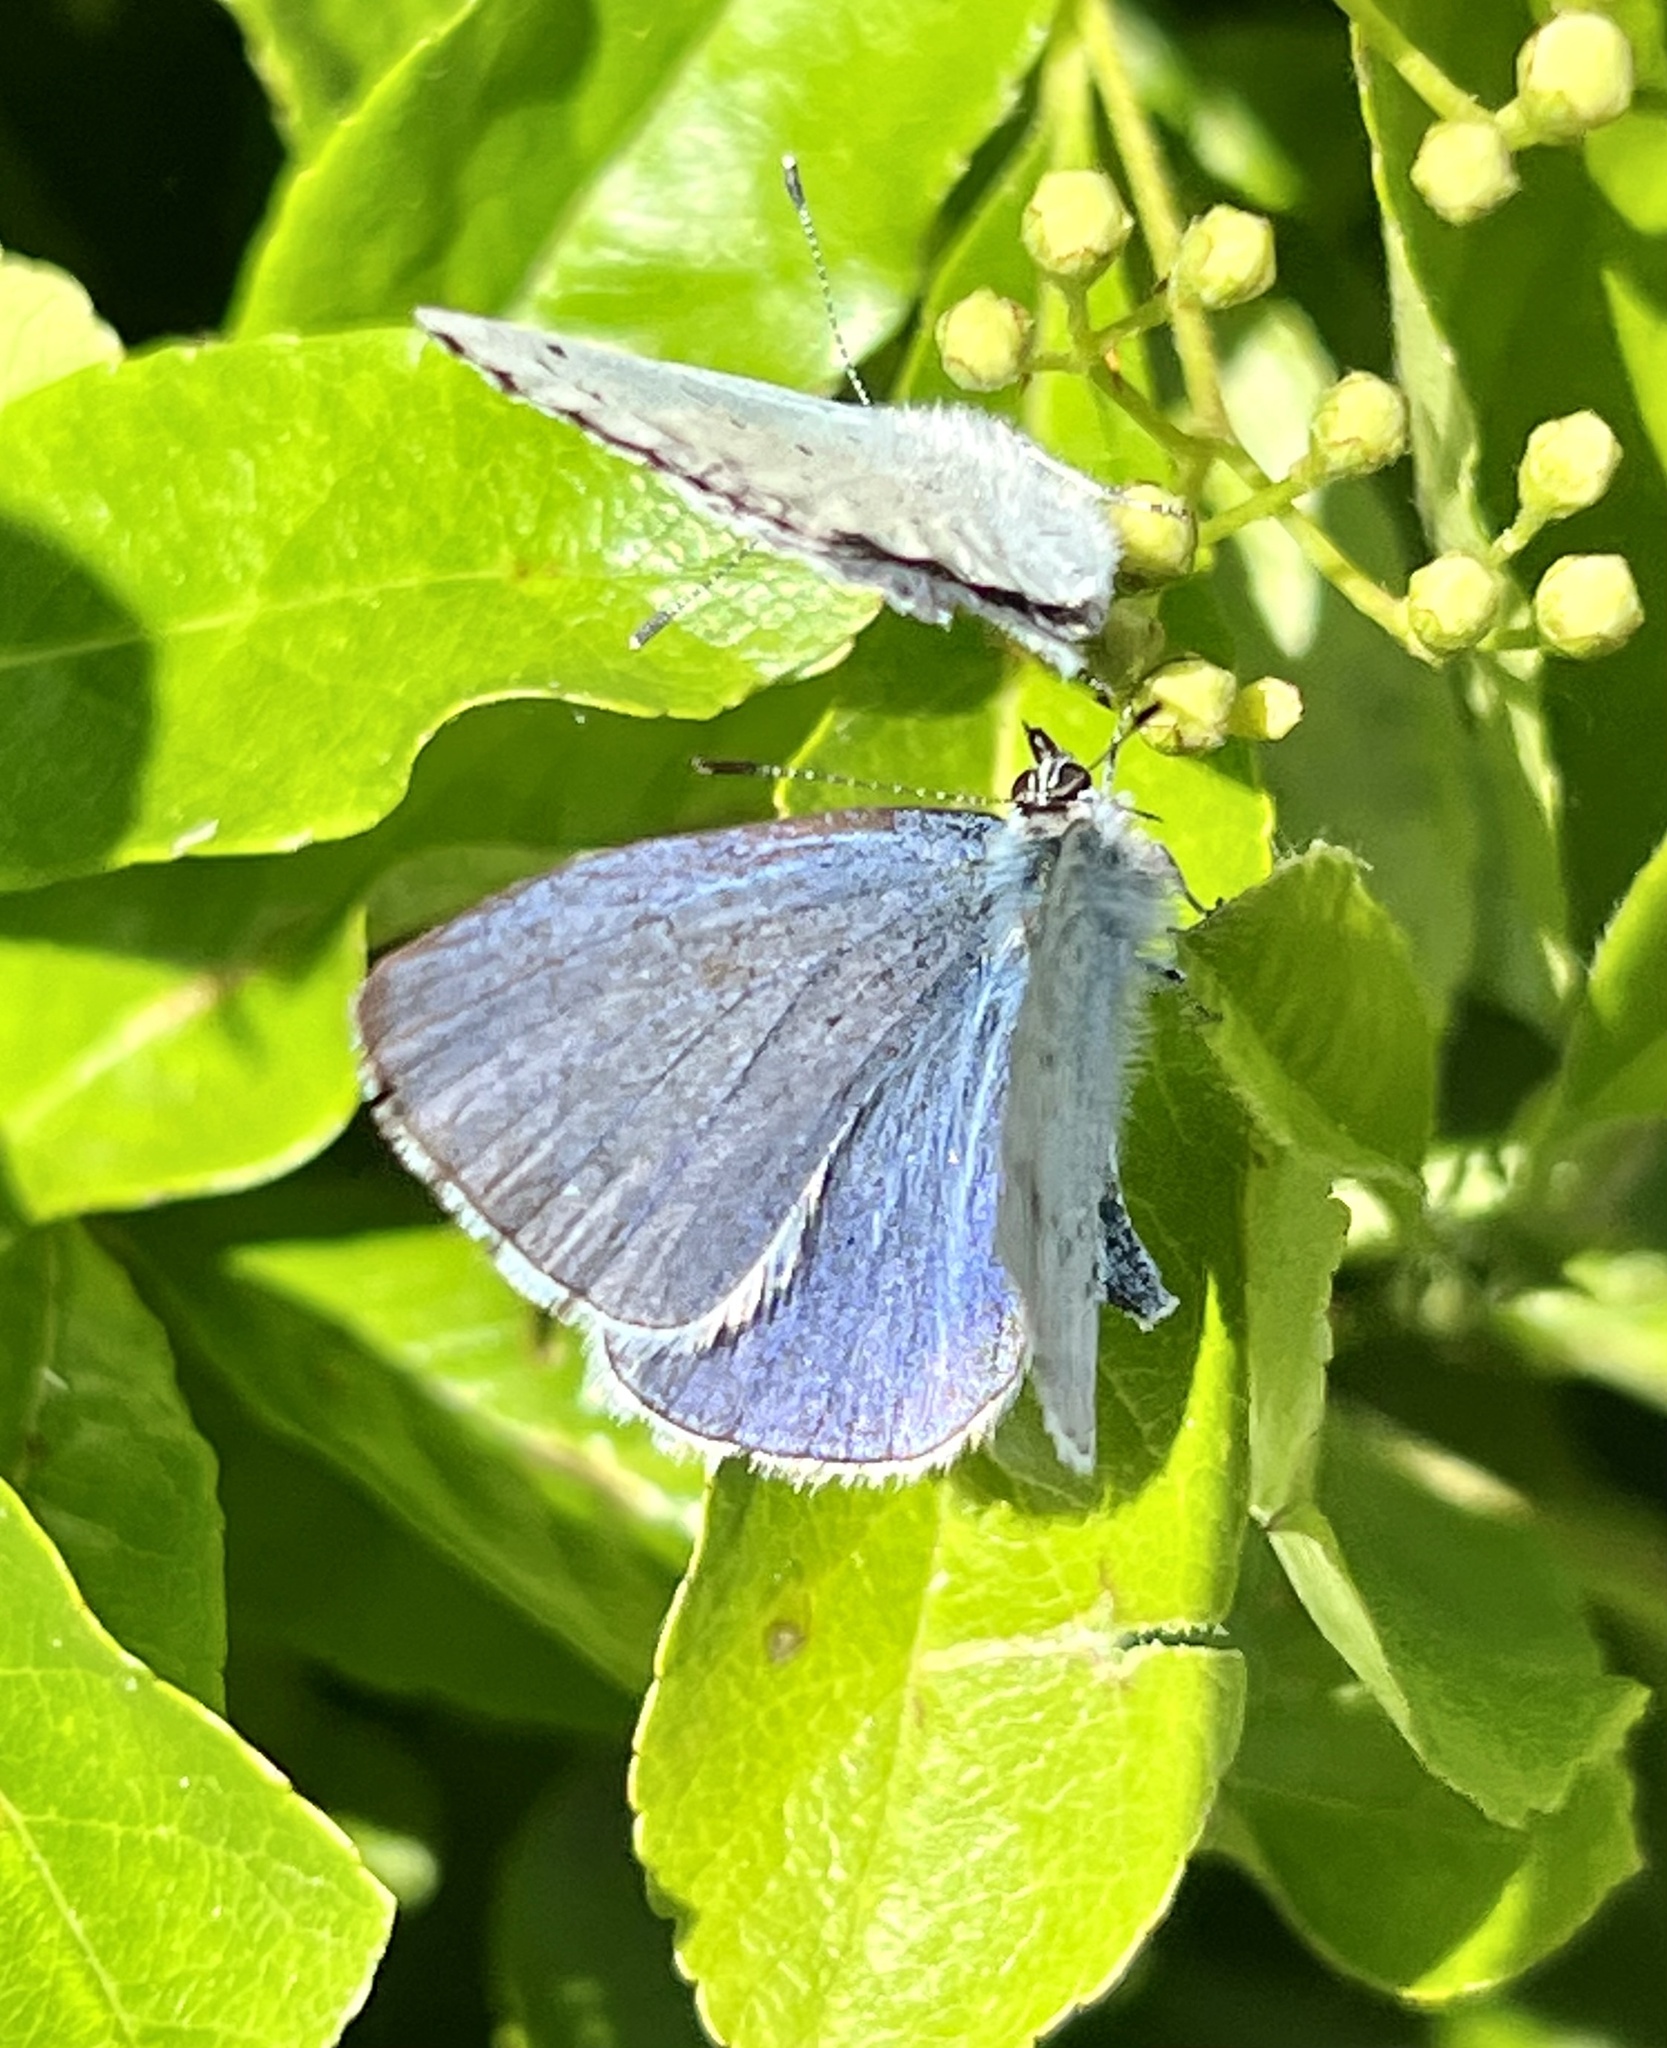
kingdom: Animalia
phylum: Arthropoda
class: Insecta
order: Lepidoptera
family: Lycaenidae
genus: Celastrina
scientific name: Celastrina argiolus
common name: Holly blue
